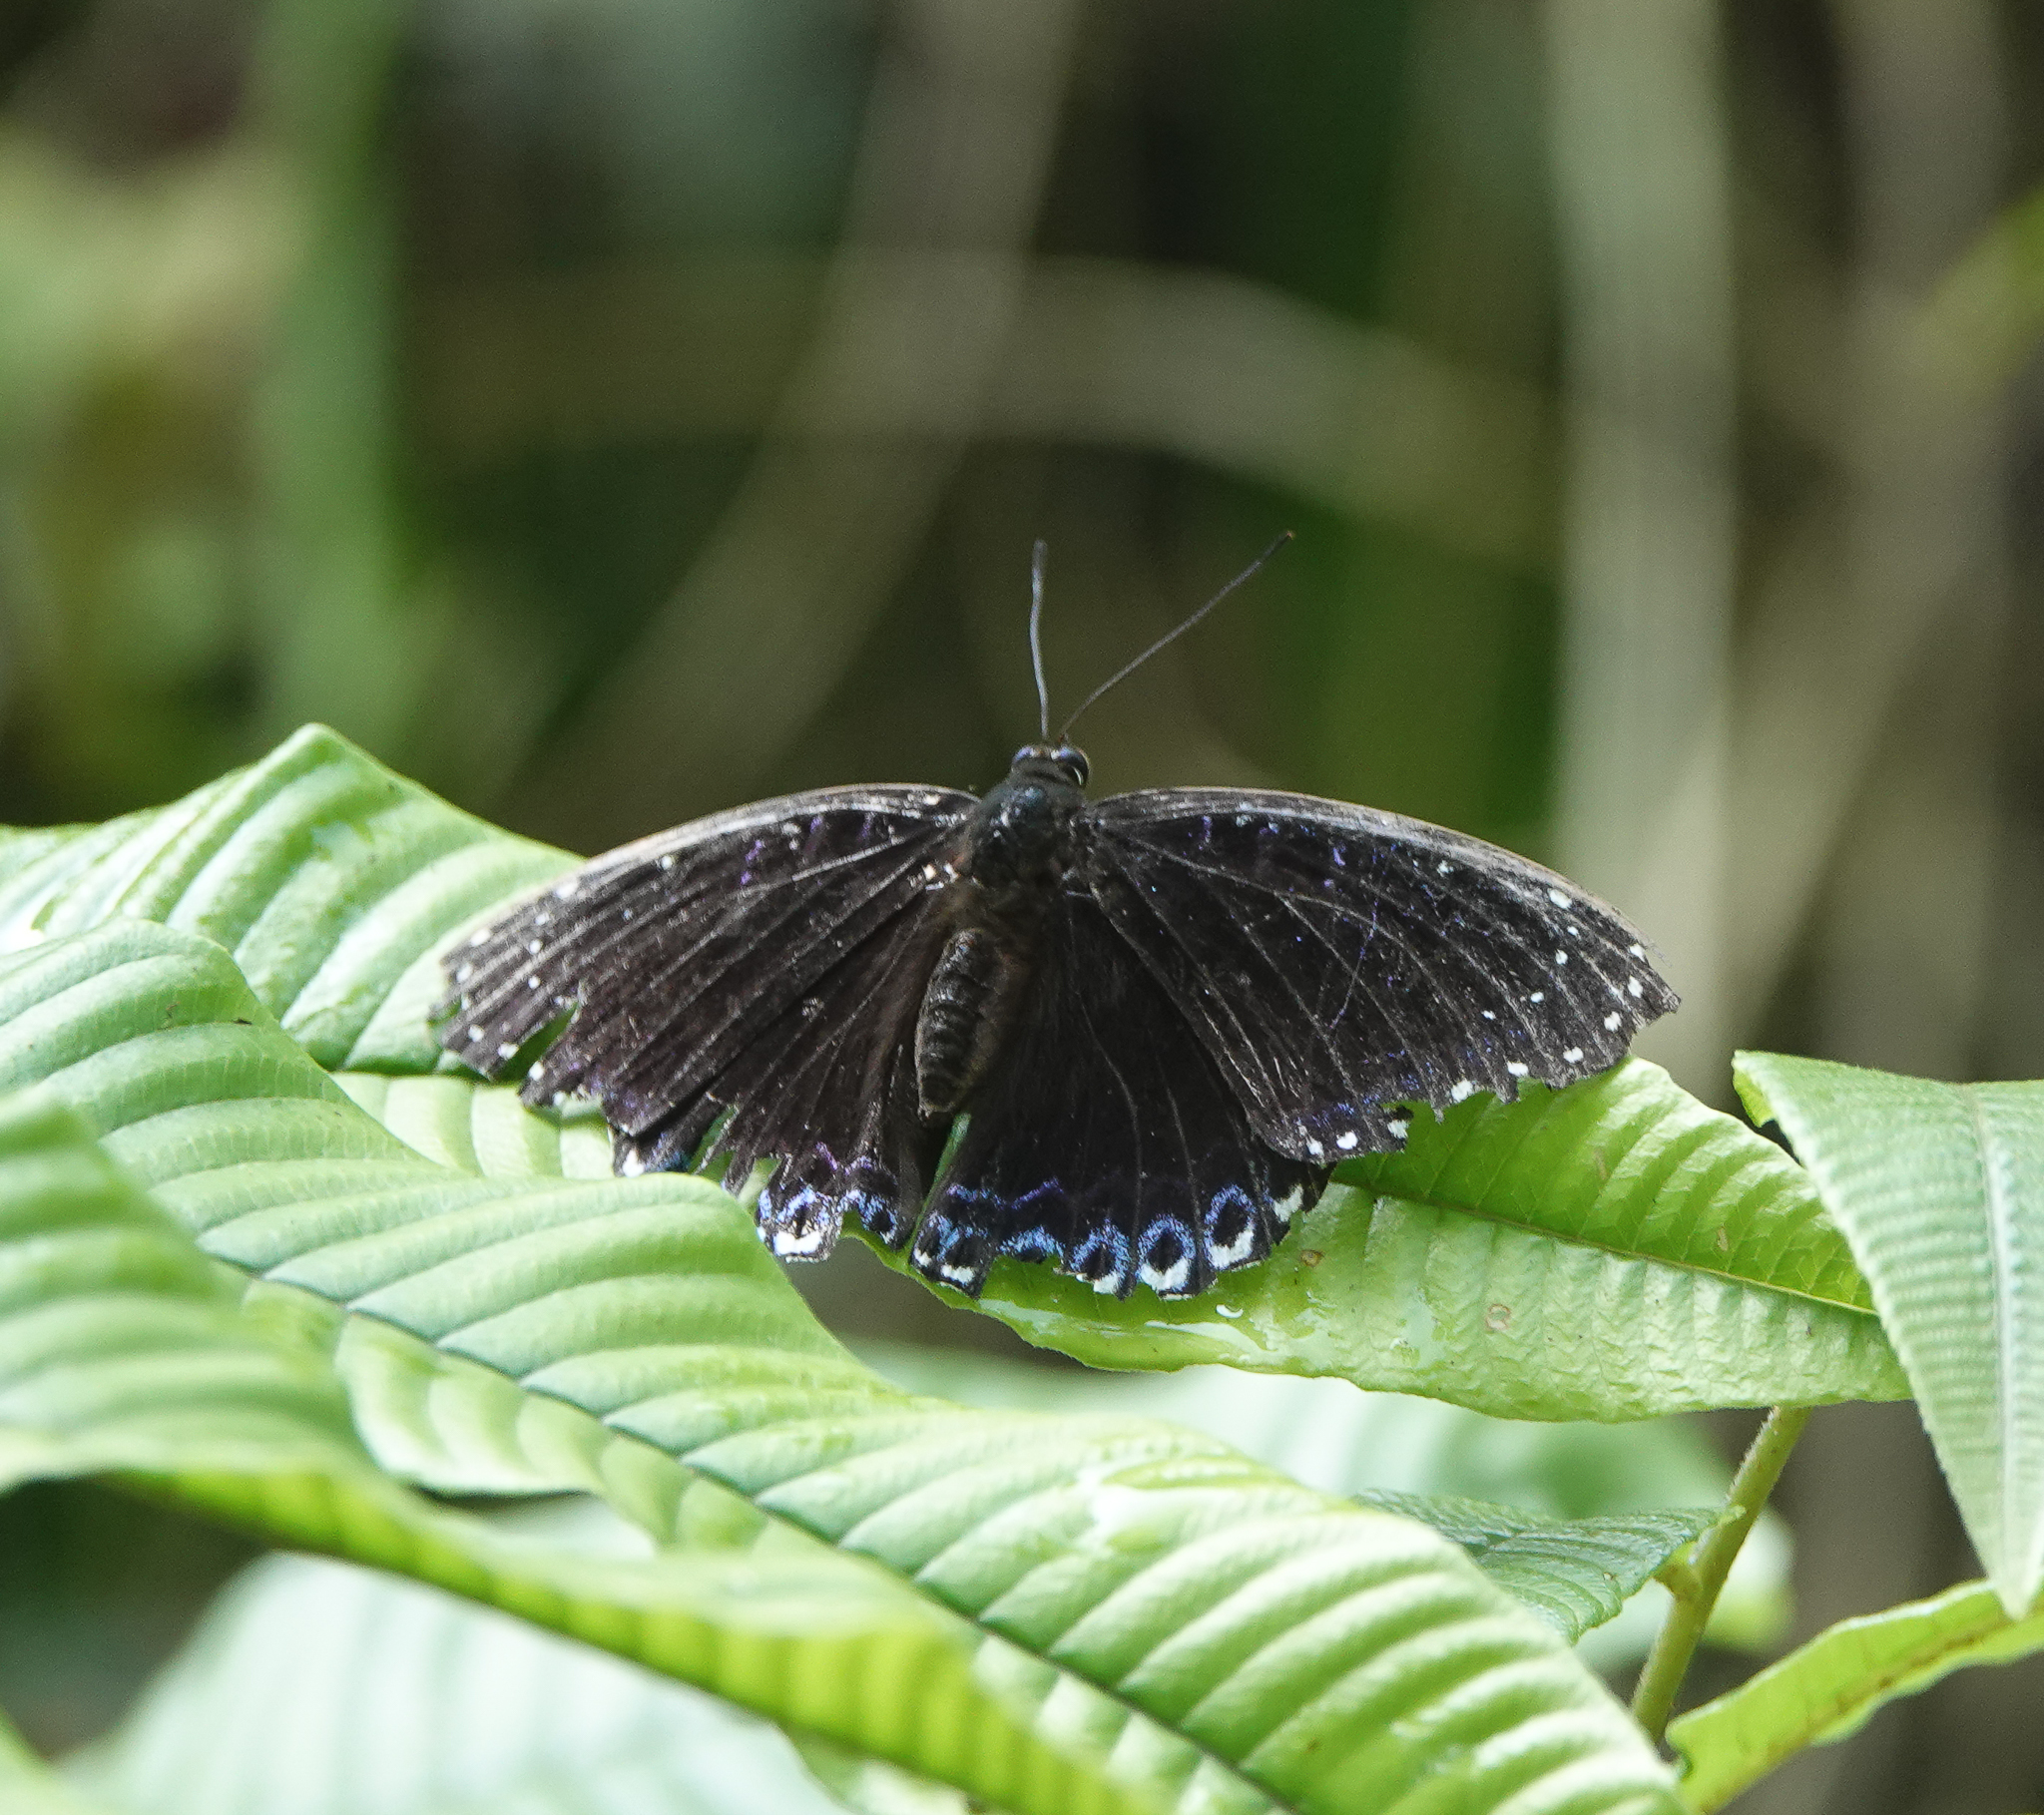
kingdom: Animalia
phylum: Arthropoda
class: Insecta
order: Lepidoptera
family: Nymphalidae
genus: Stibochiona
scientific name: Stibochiona nicea
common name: Popinjay
